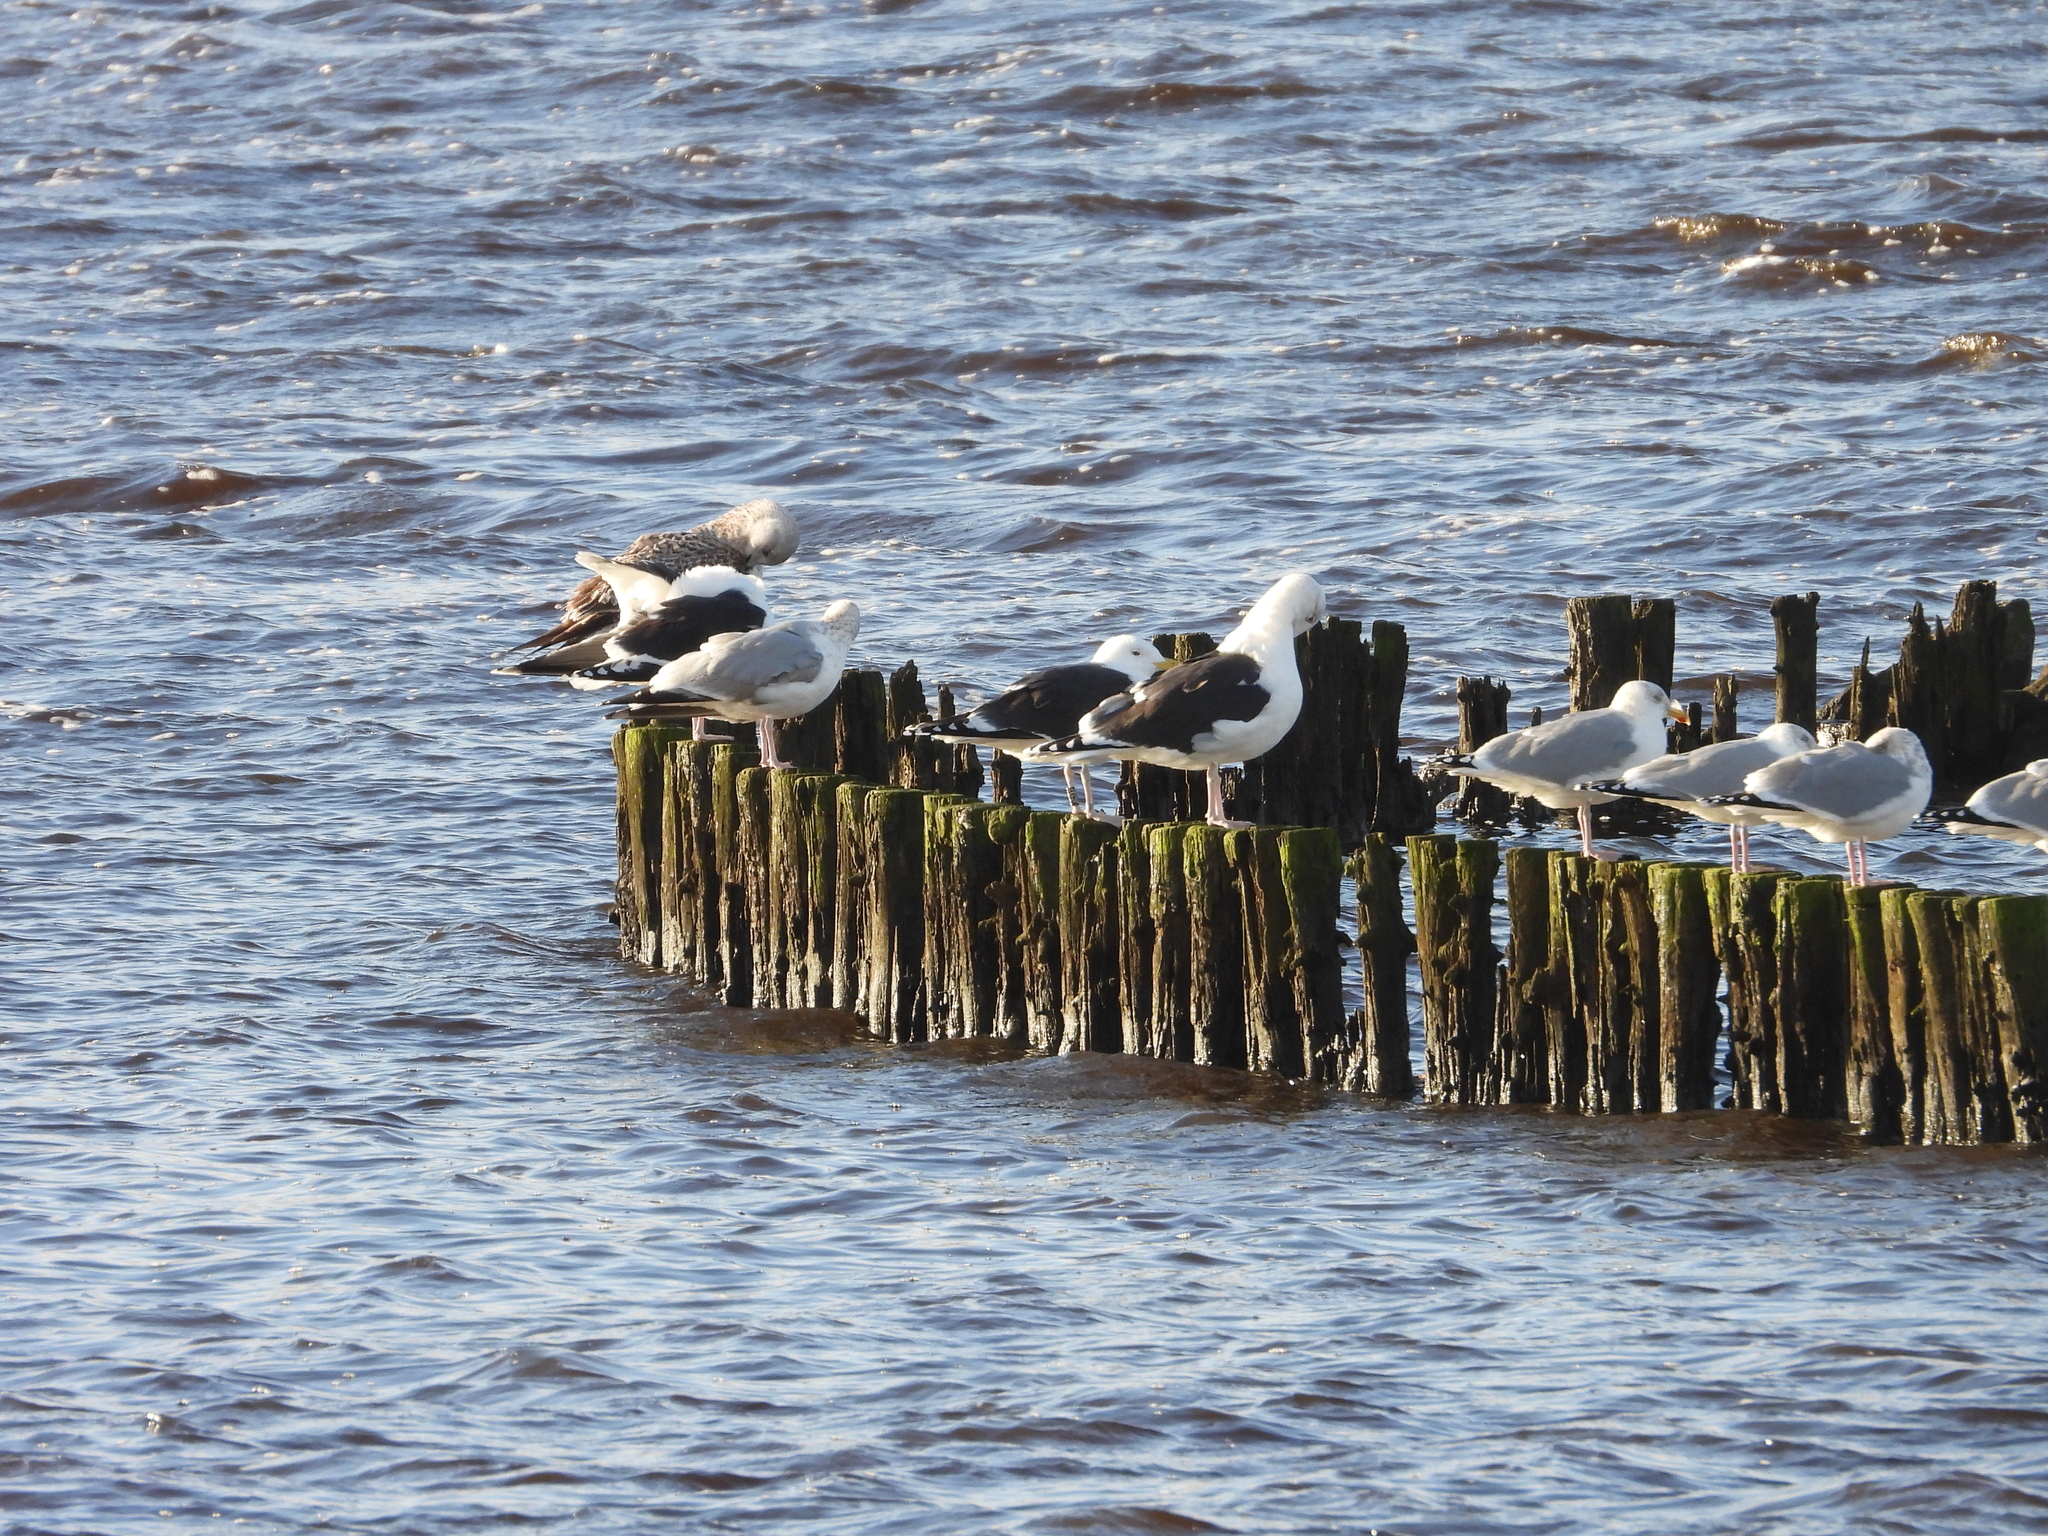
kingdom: Animalia
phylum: Chordata
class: Aves
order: Charadriiformes
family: Laridae
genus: Larus
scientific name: Larus marinus
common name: Great black-backed gull
